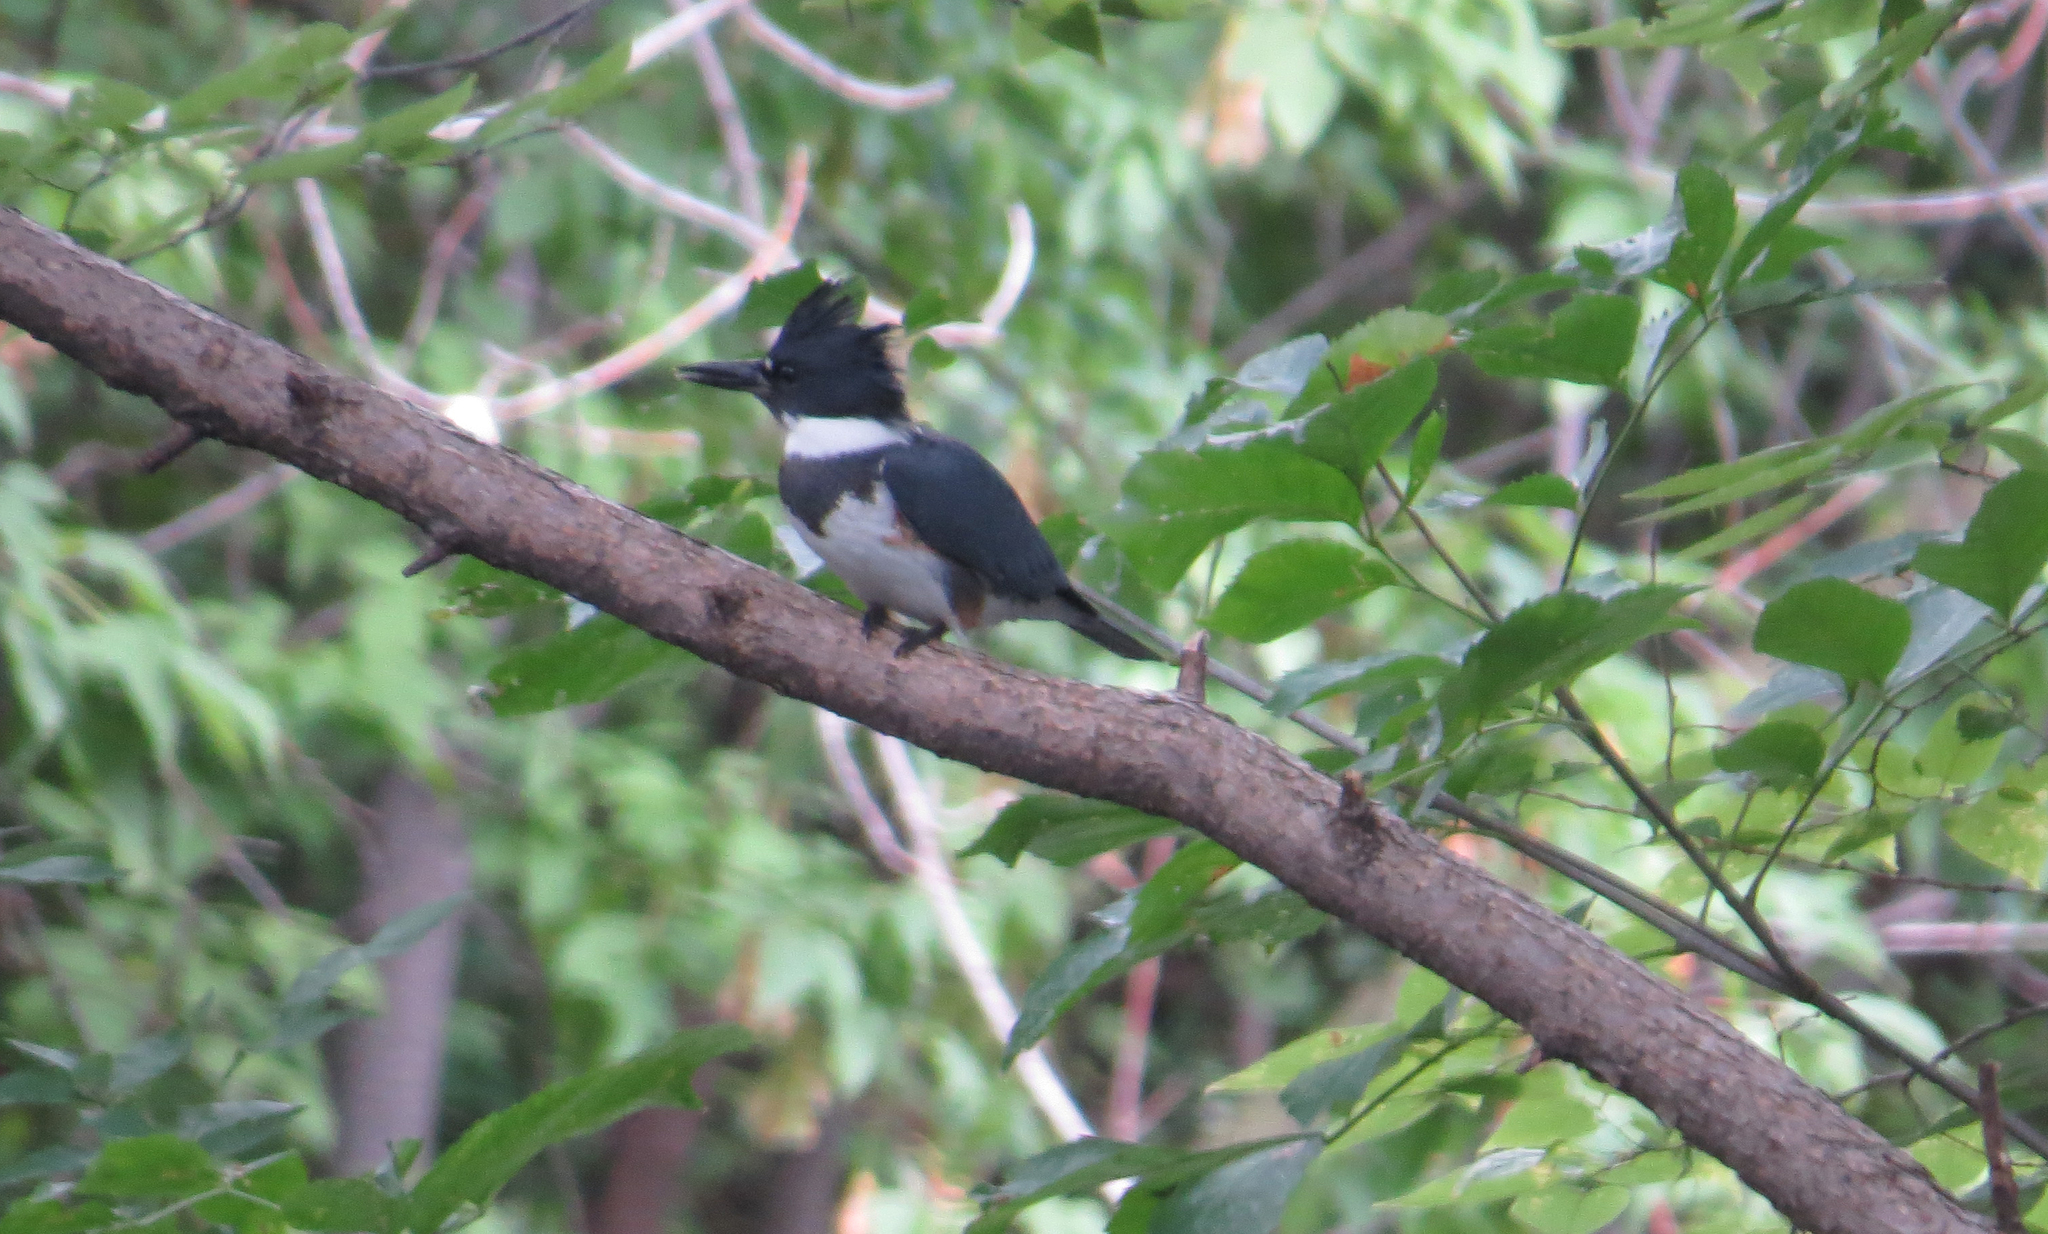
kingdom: Animalia
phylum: Chordata
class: Aves
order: Coraciiformes
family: Alcedinidae
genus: Megaceryle
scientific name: Megaceryle alcyon
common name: Belted kingfisher
